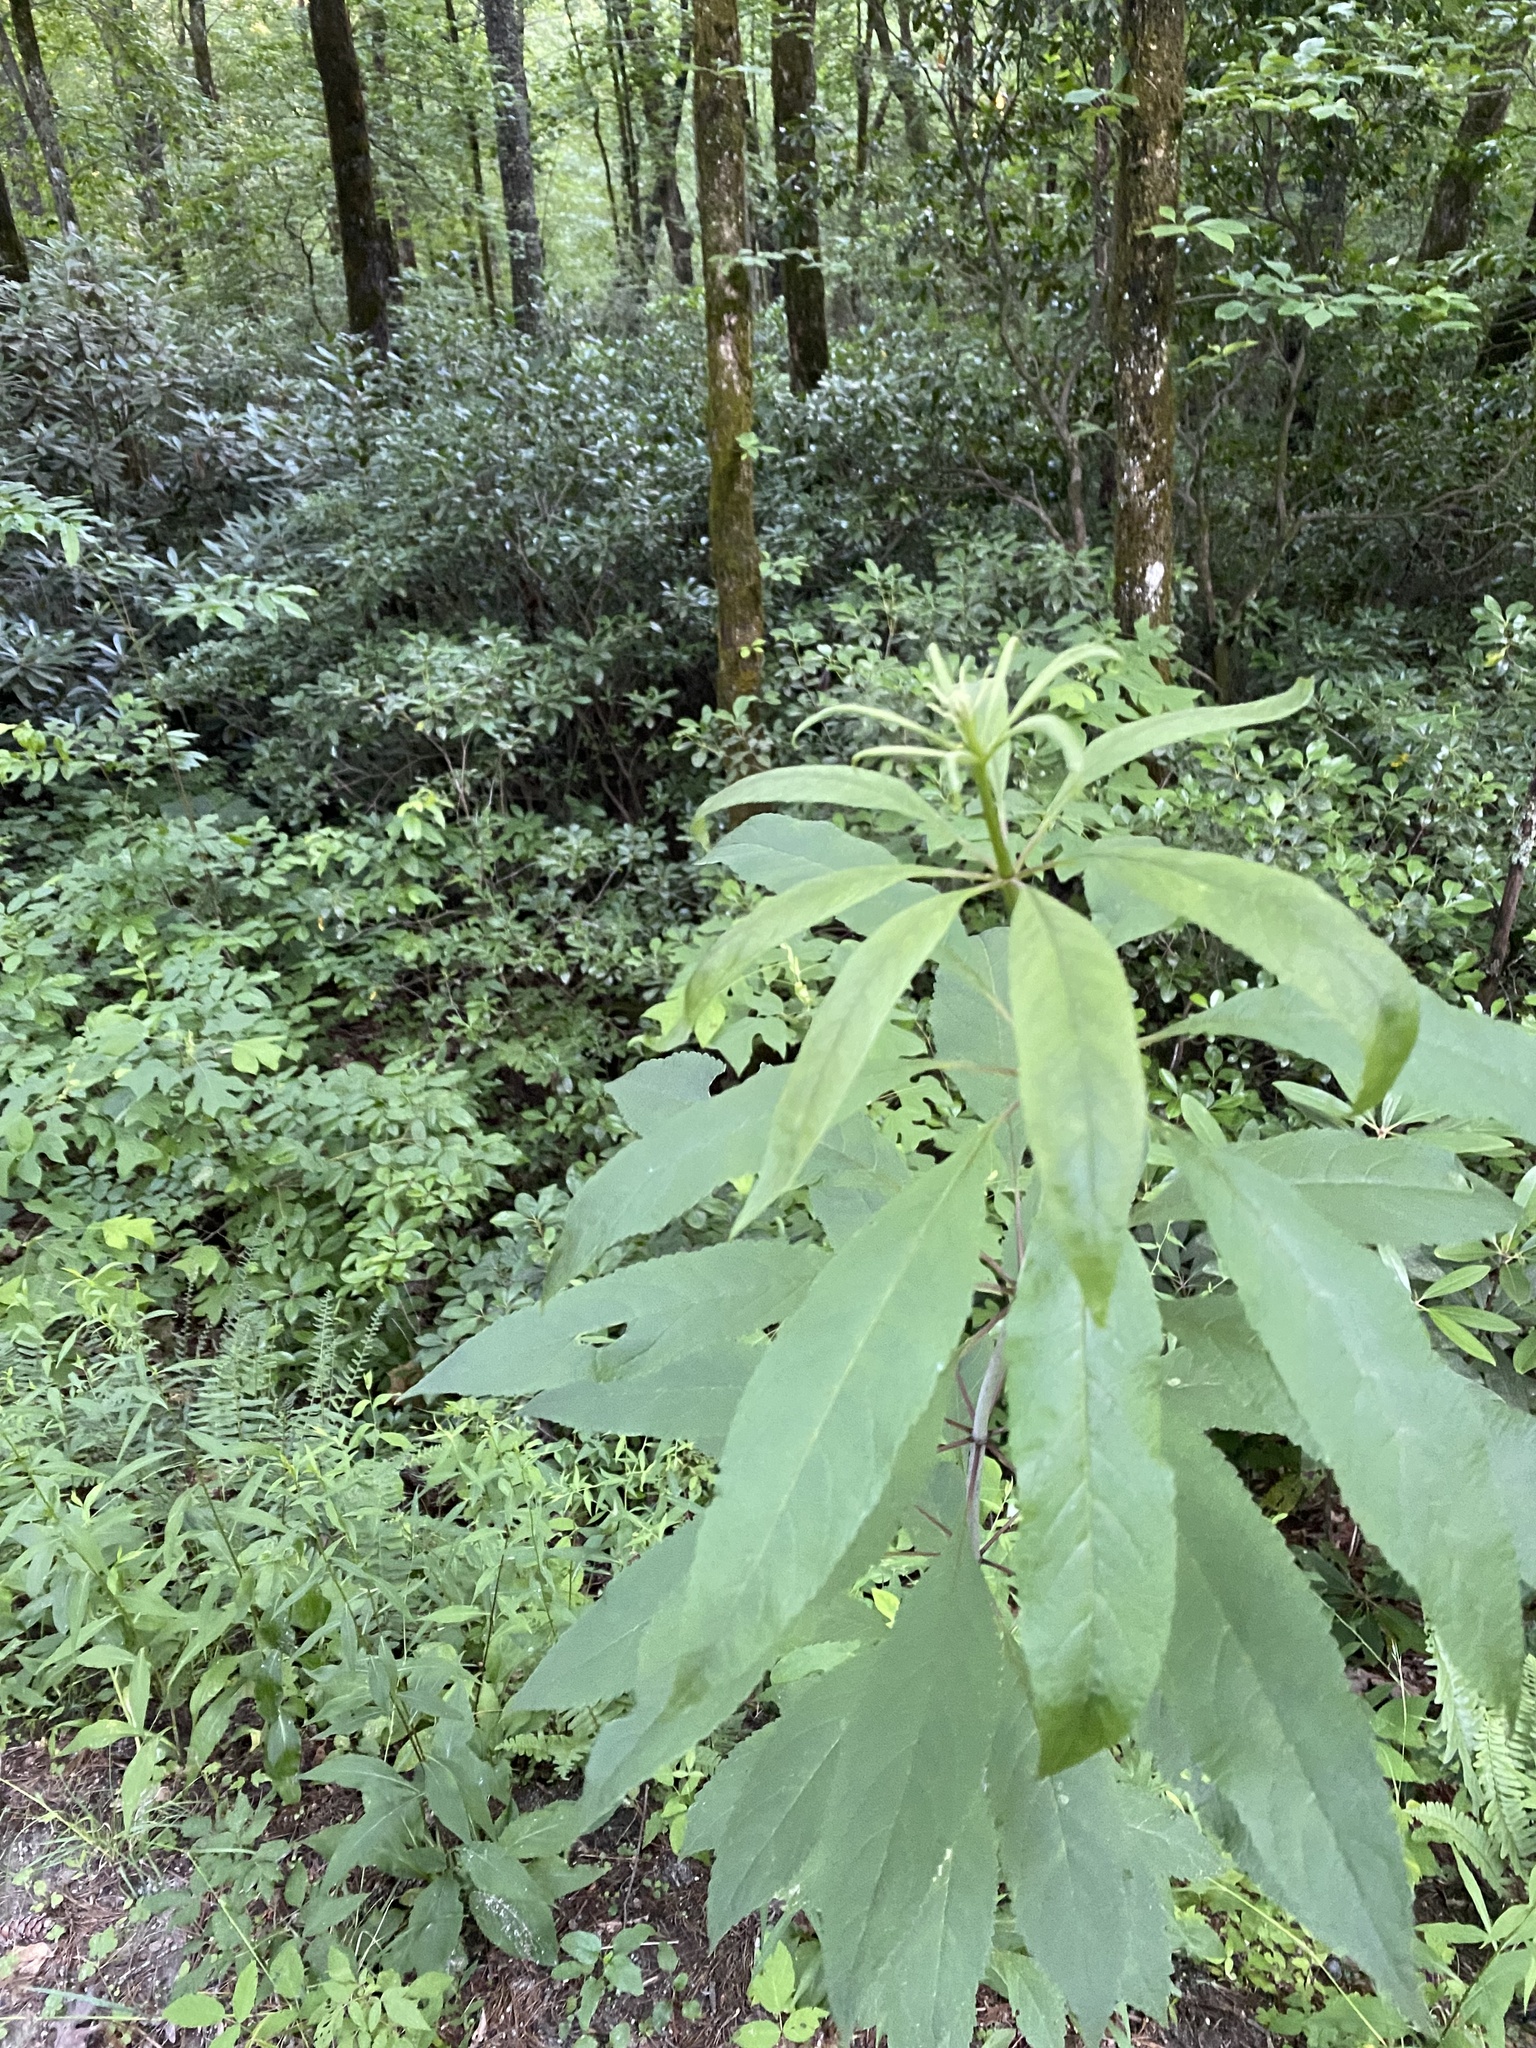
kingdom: Plantae
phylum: Tracheophyta
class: Magnoliopsida
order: Asterales
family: Asteraceae
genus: Eutrochium
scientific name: Eutrochium fistulosum
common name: Trumpetweed
